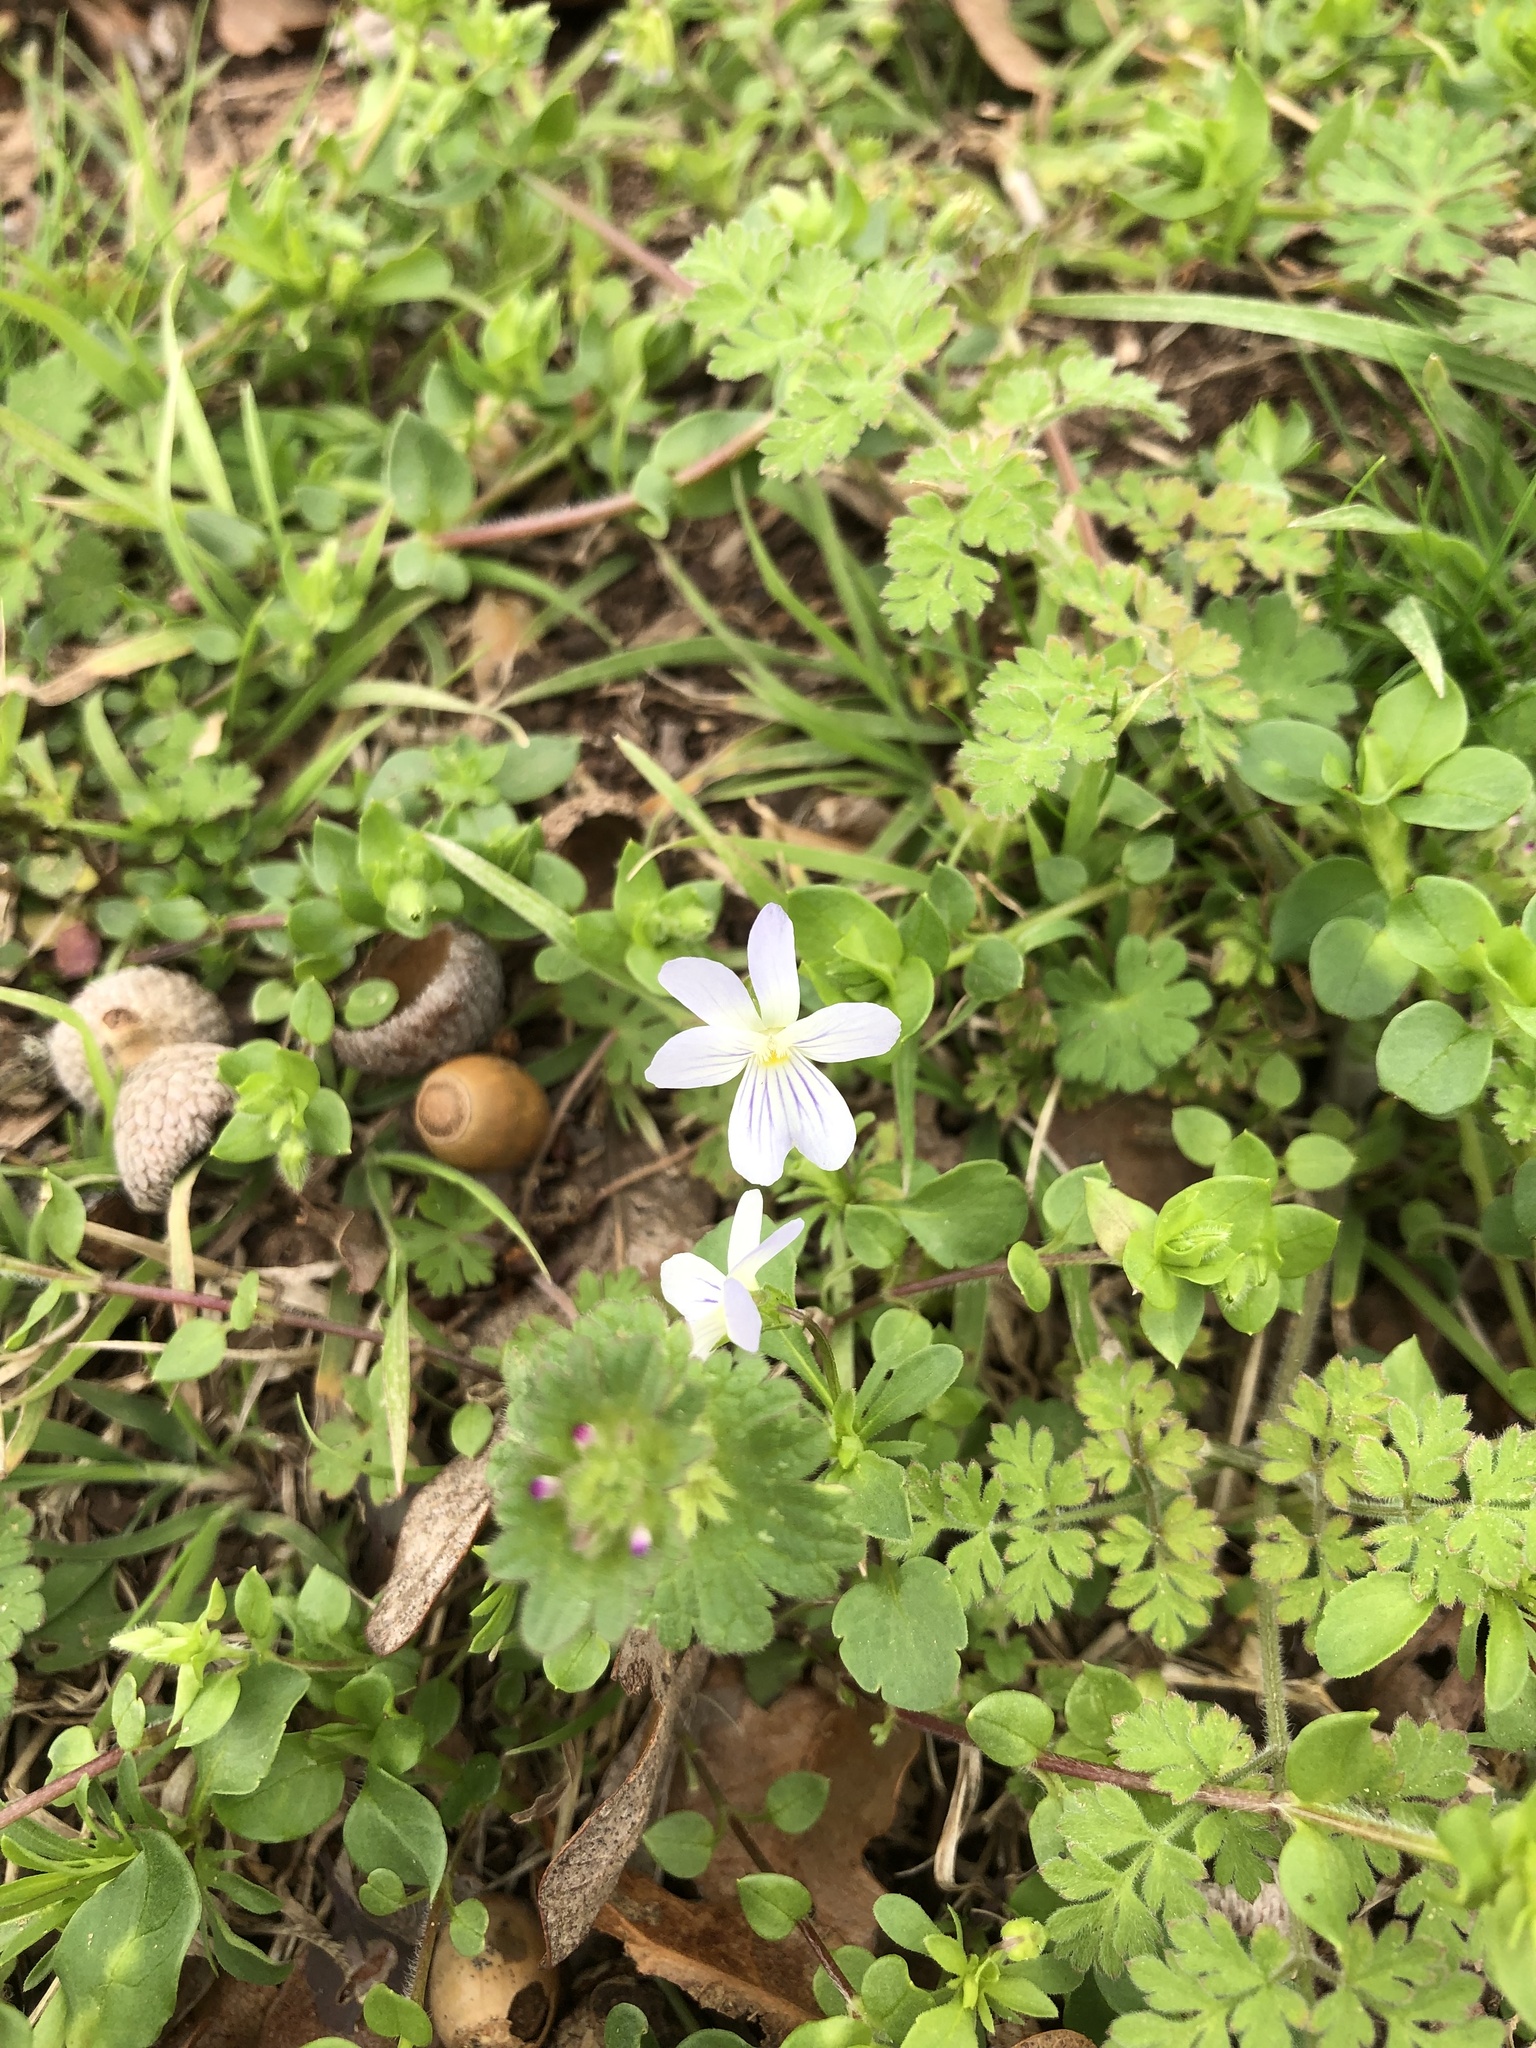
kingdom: Plantae
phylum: Tracheophyta
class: Magnoliopsida
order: Malpighiales
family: Violaceae
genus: Viola
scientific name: Viola rafinesquei
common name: American field pansy
